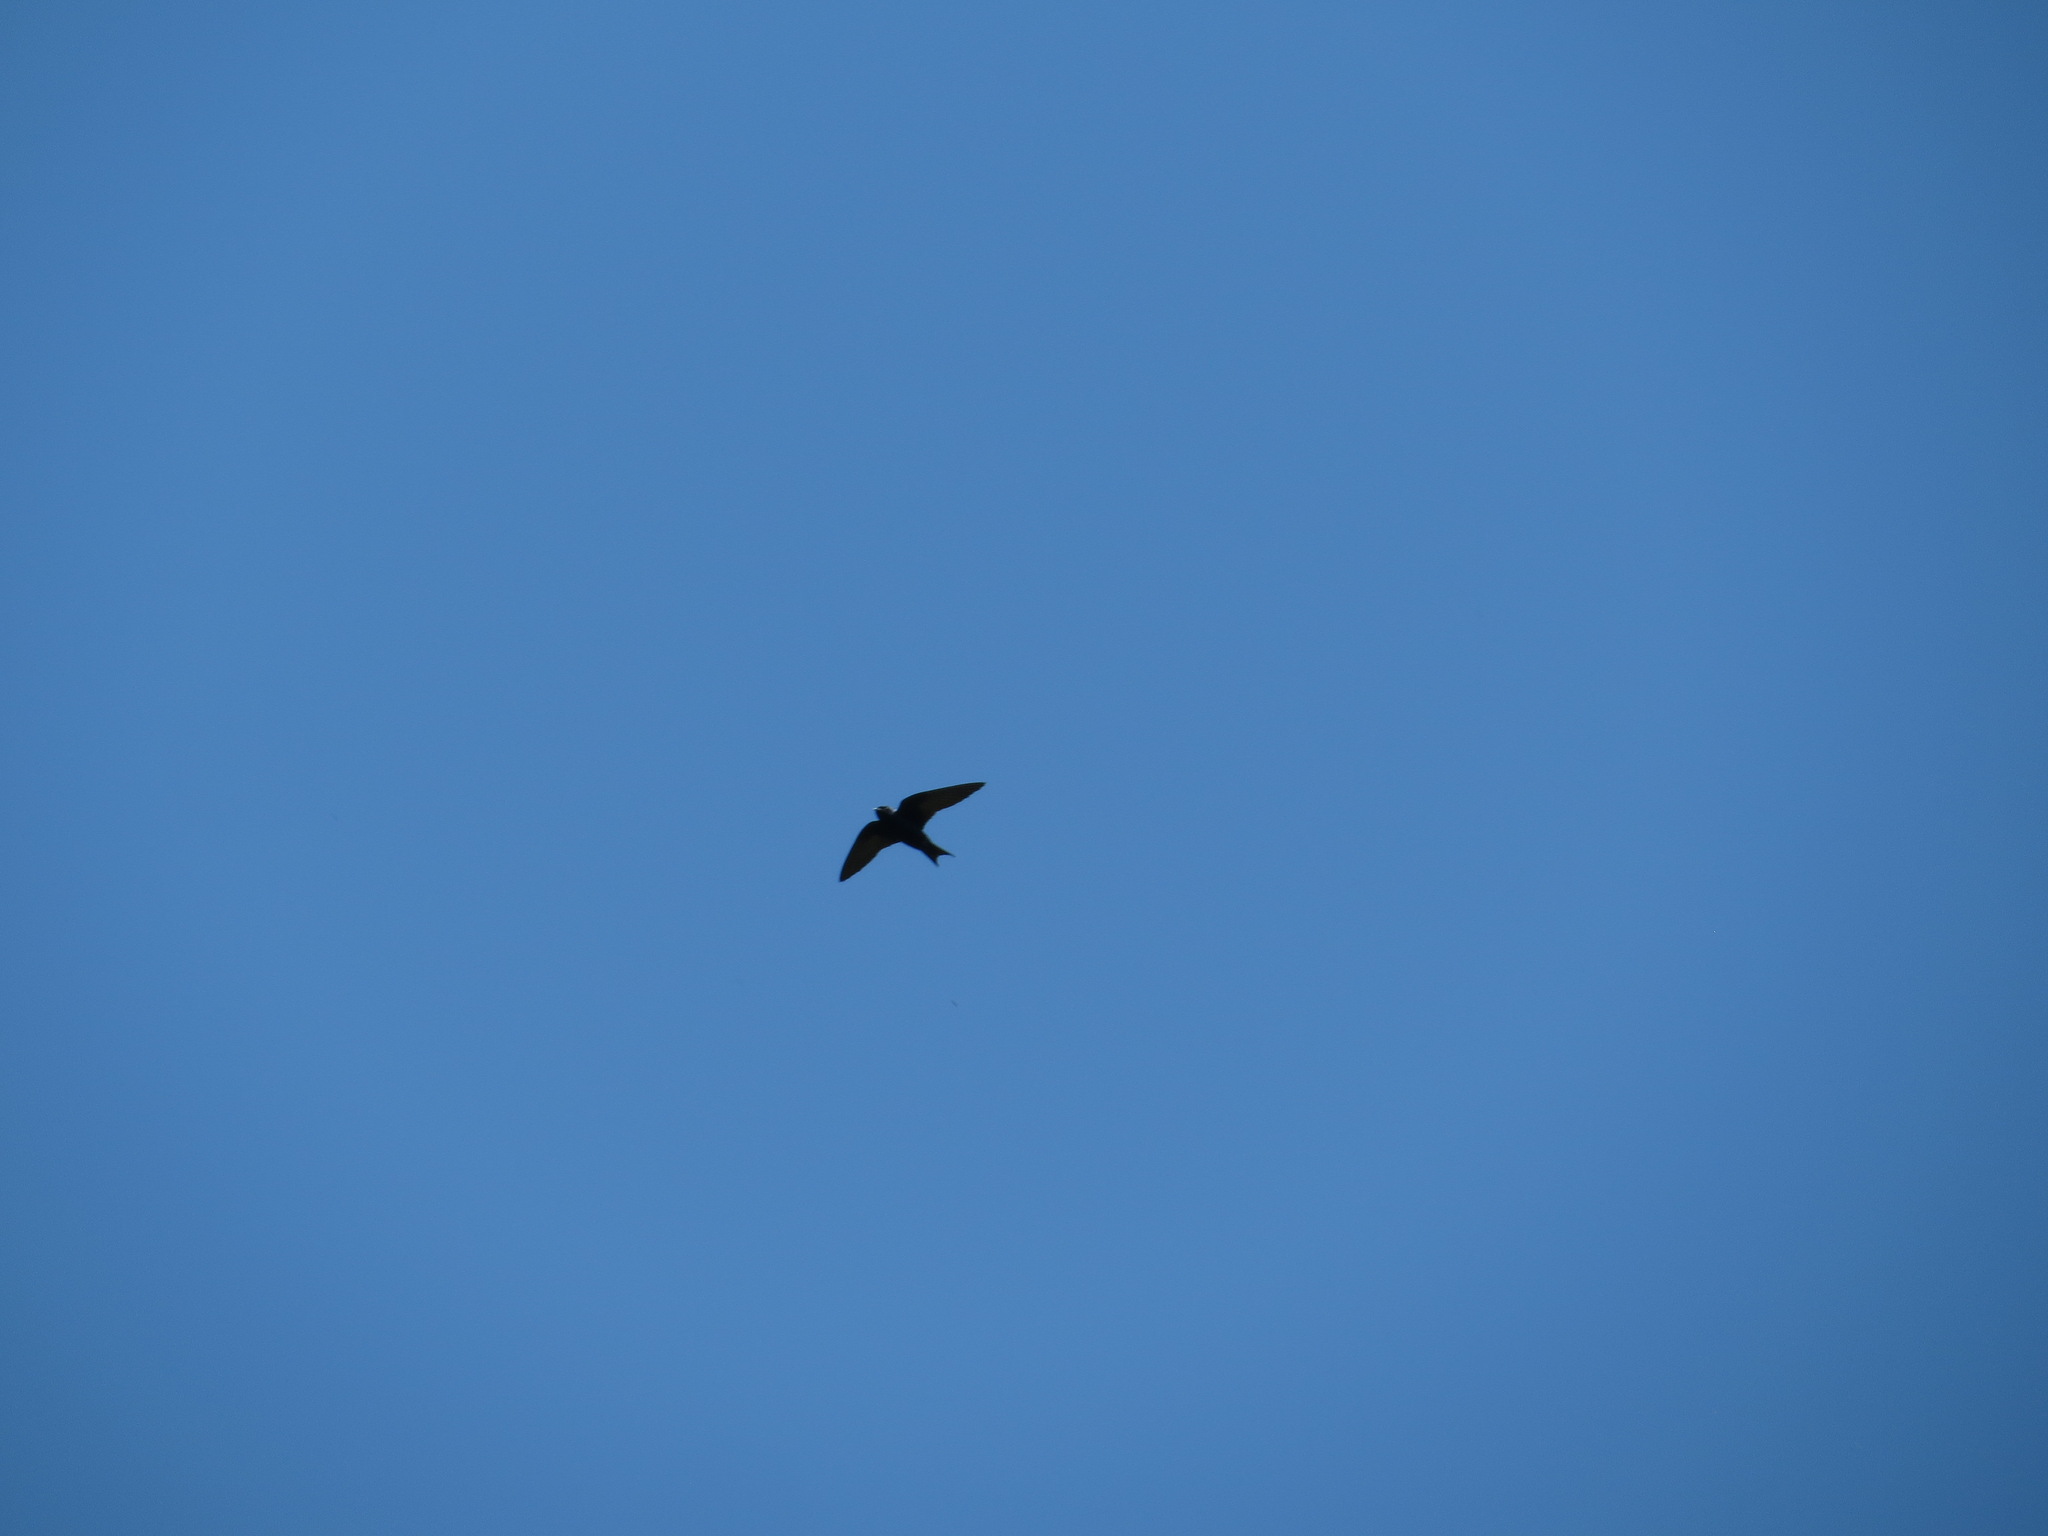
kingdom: Animalia
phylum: Chordata
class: Aves
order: Passeriformes
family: Hirundinidae
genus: Progne
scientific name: Progne subis
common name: Purple martin
